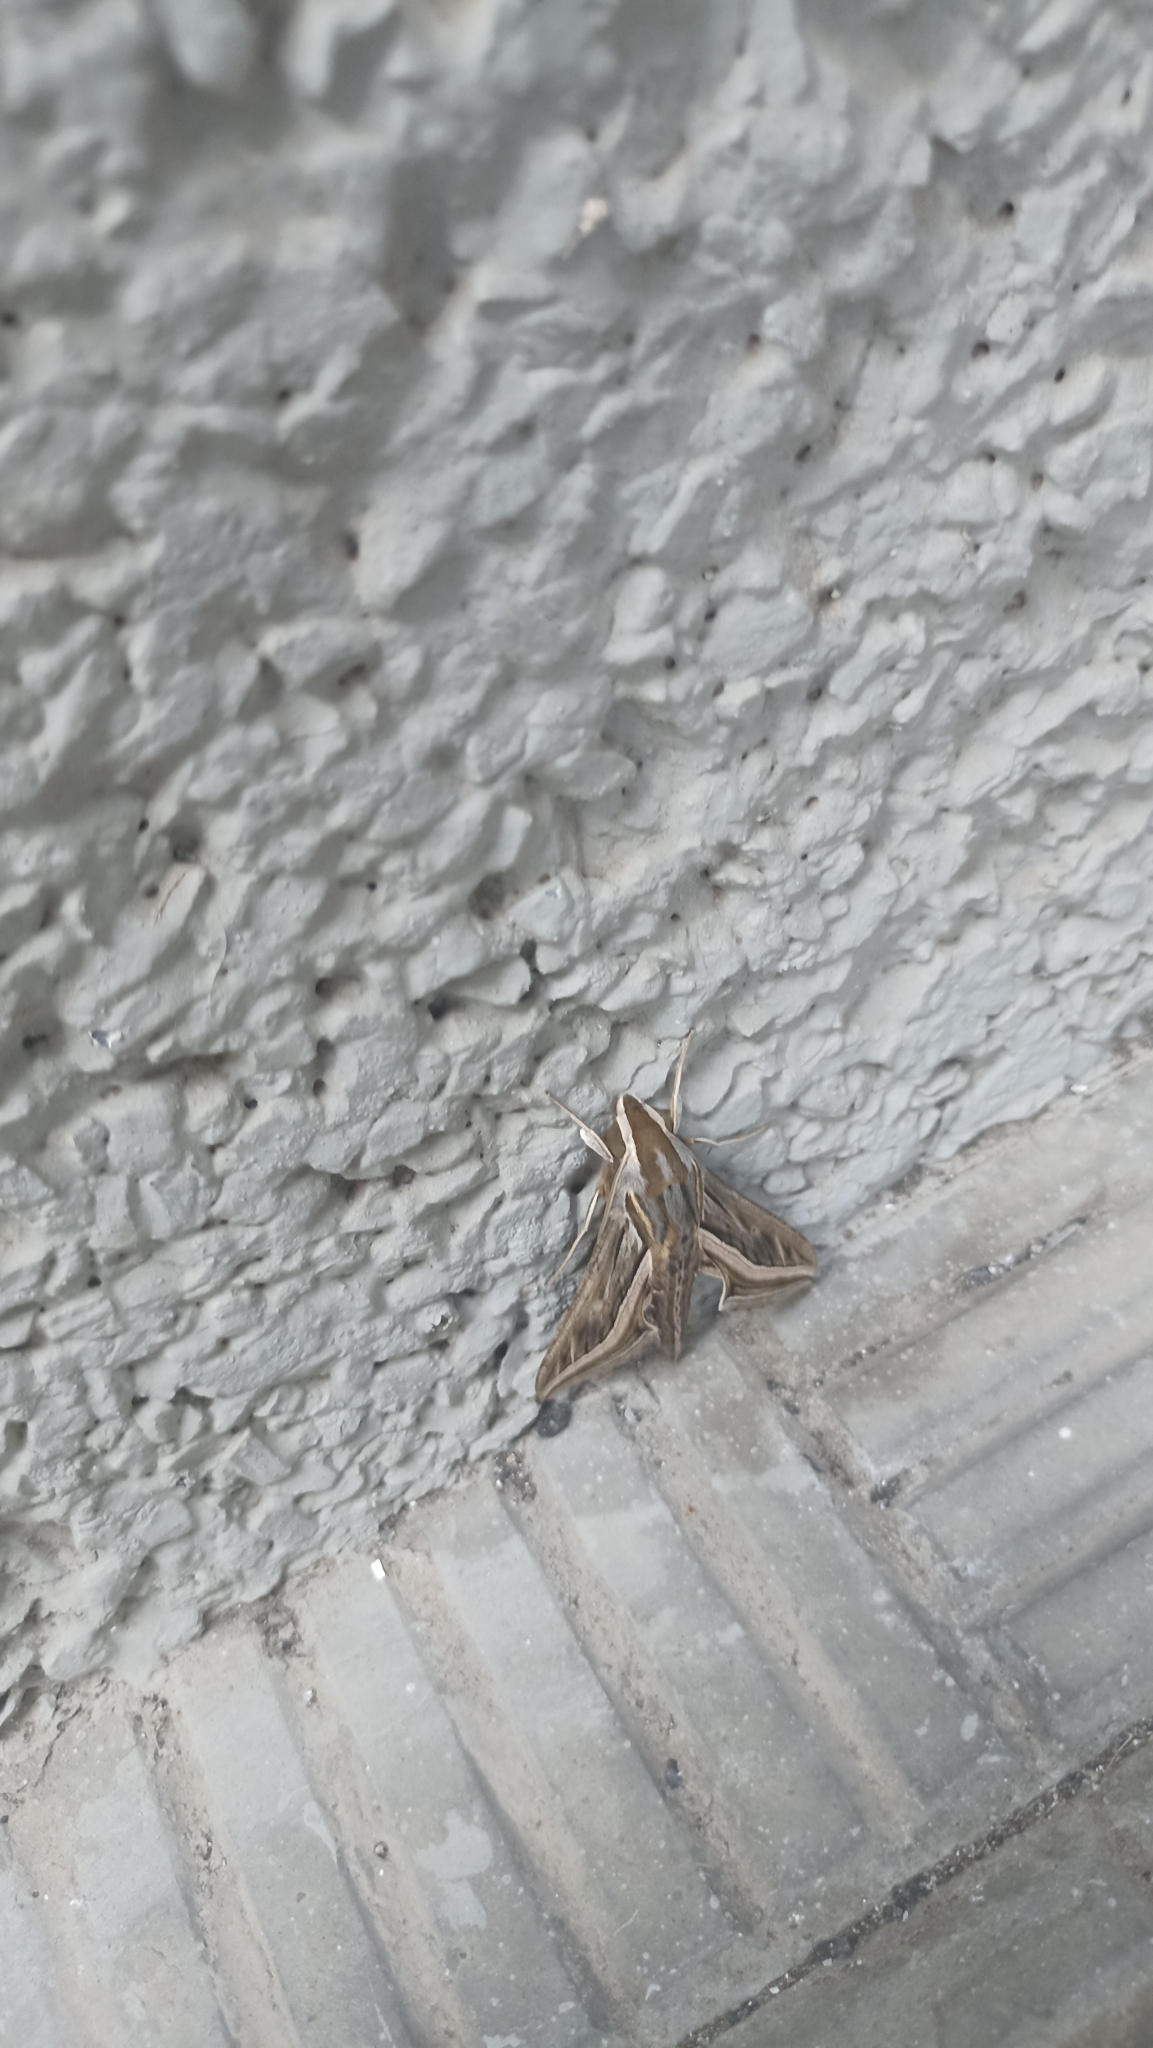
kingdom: Animalia
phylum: Arthropoda
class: Insecta
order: Lepidoptera
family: Sphingidae
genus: Hippotion
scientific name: Hippotion celerio
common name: Silver-striped hawk-moth
